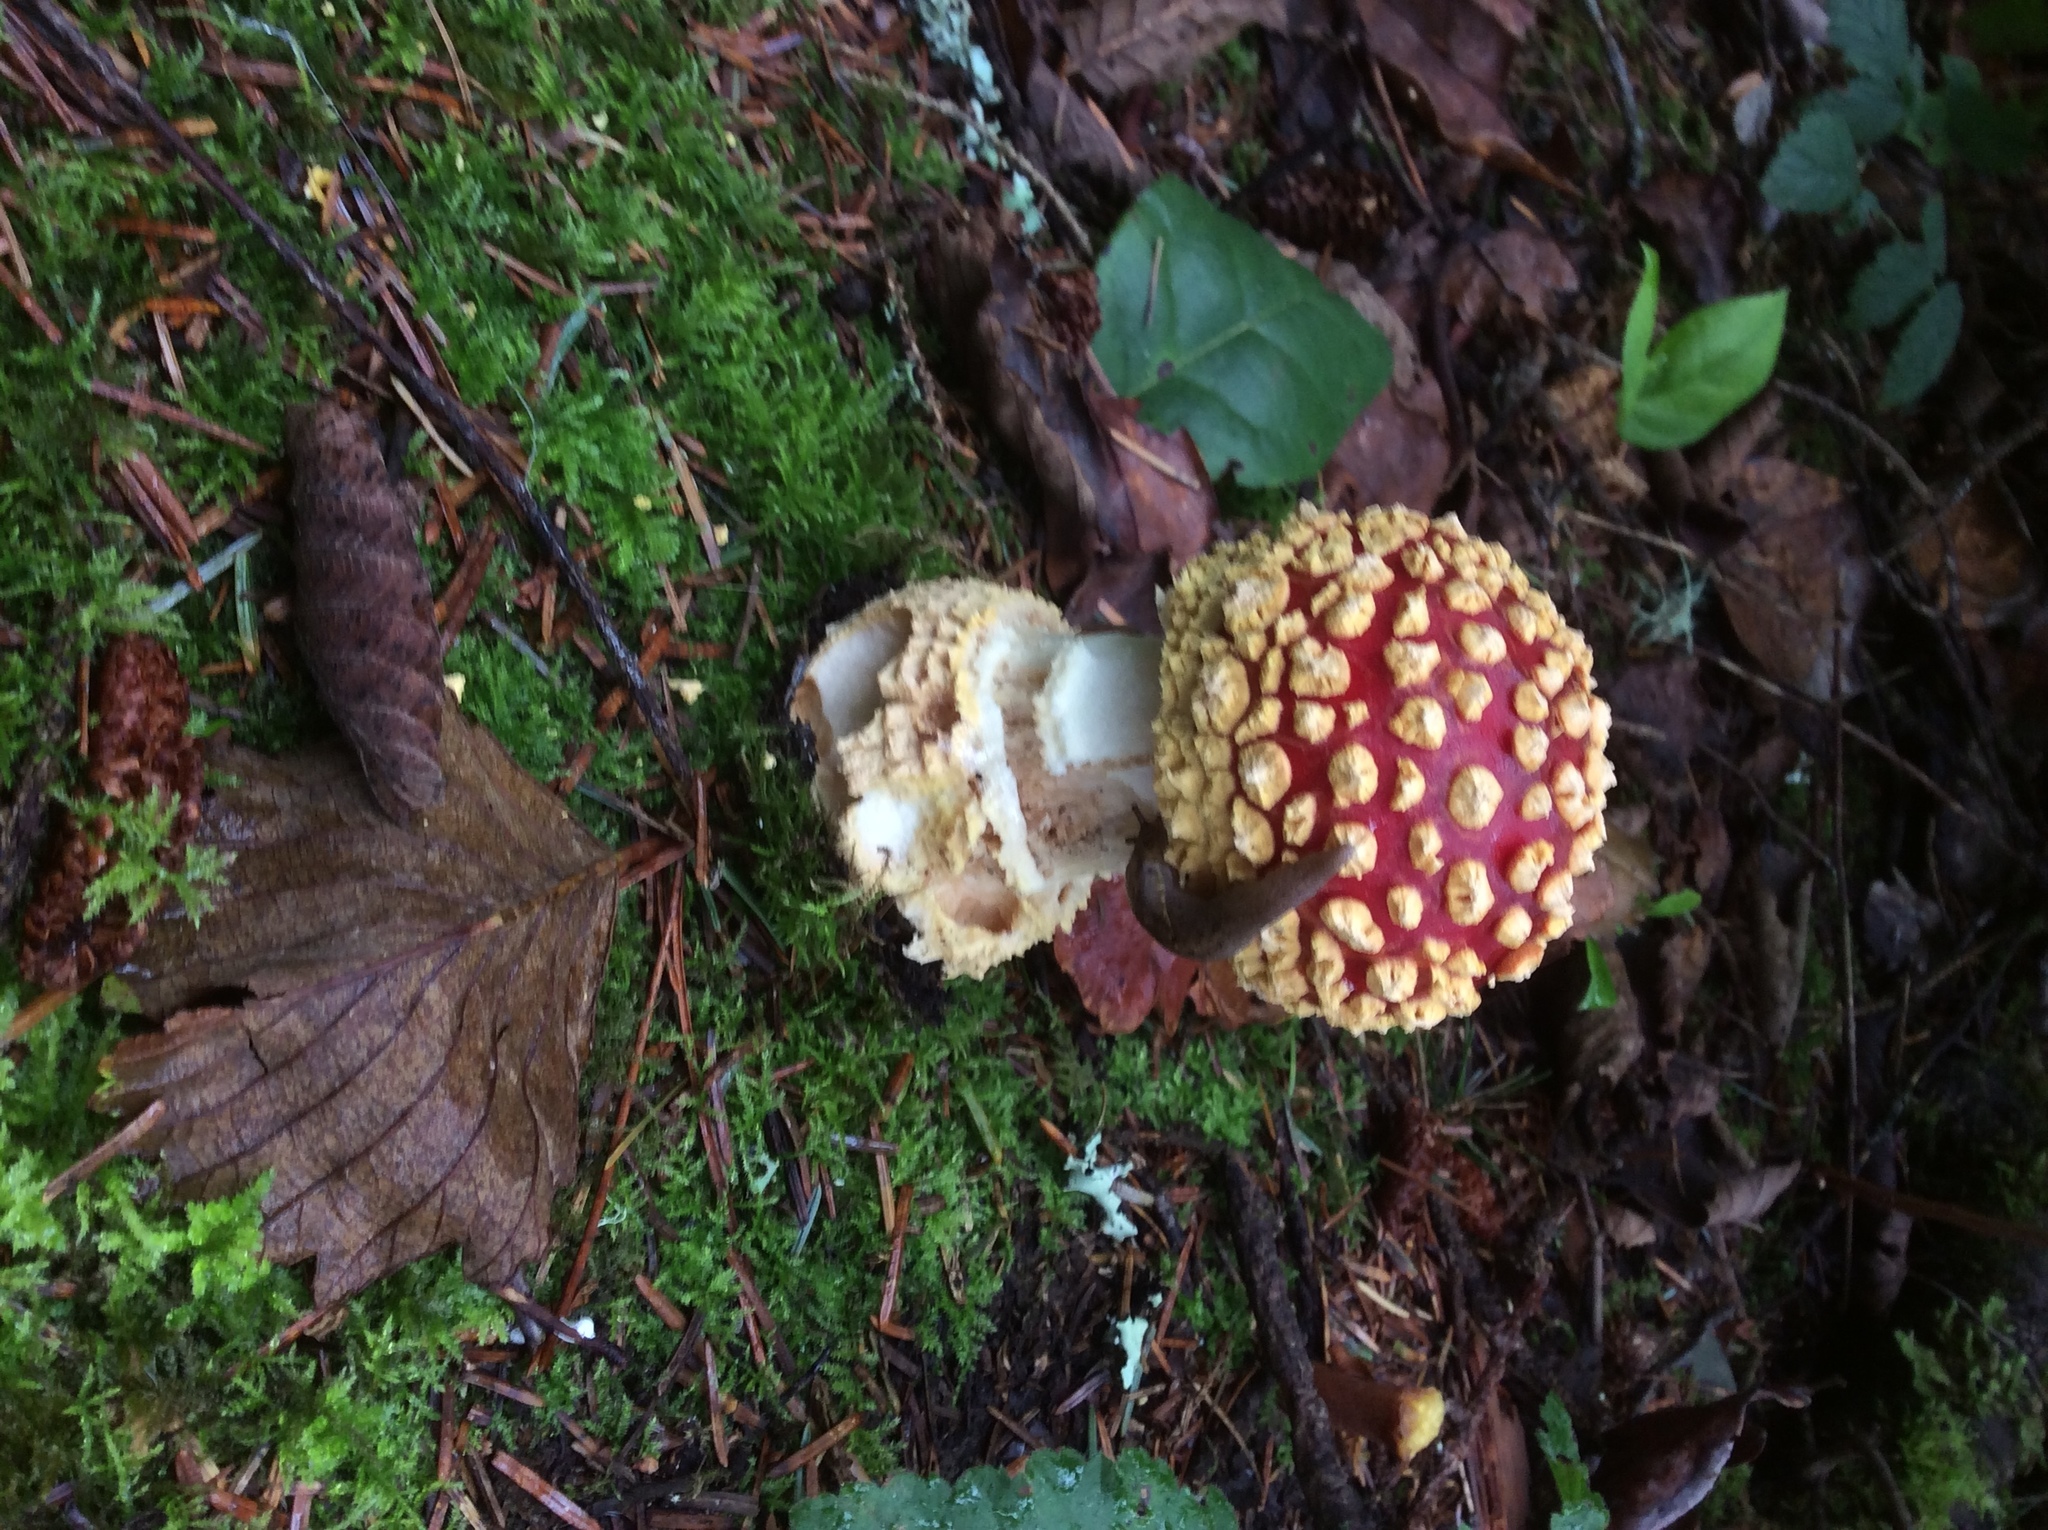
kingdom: Fungi
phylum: Basidiomycota
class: Agaricomycetes
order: Agaricales
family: Amanitaceae
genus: Amanita
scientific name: Amanita muscaria
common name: Fly agaric
